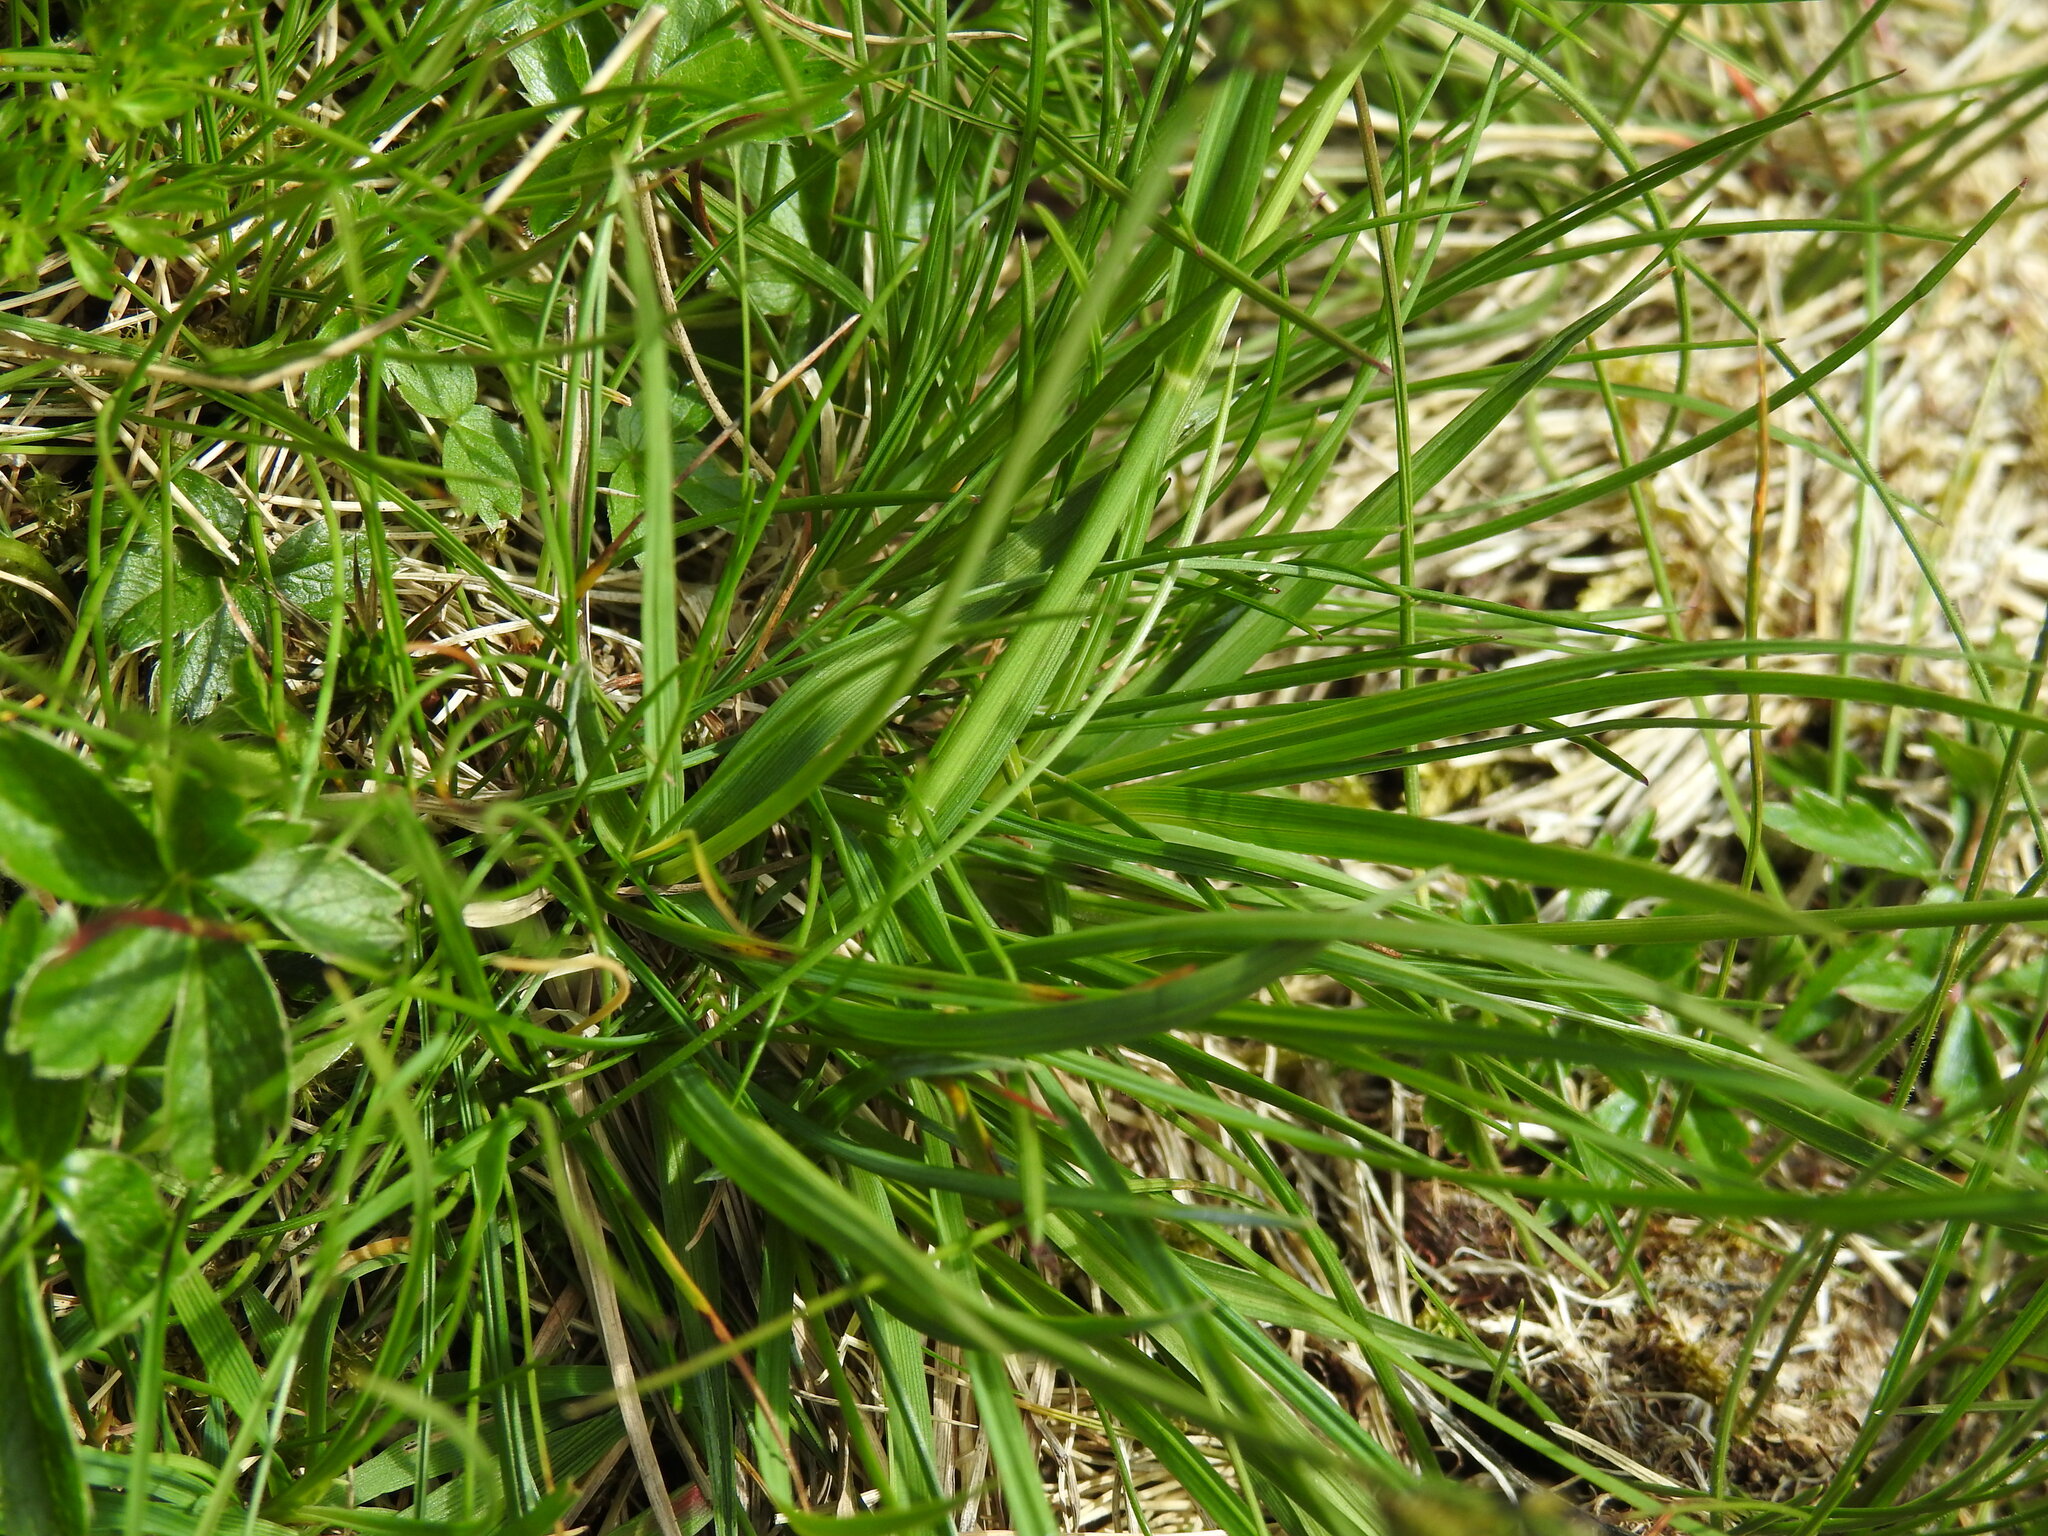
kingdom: Plantae
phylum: Tracheophyta
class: Liliopsida
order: Poales
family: Cyperaceae
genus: Carex
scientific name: Carex nigra
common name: Common sedge
